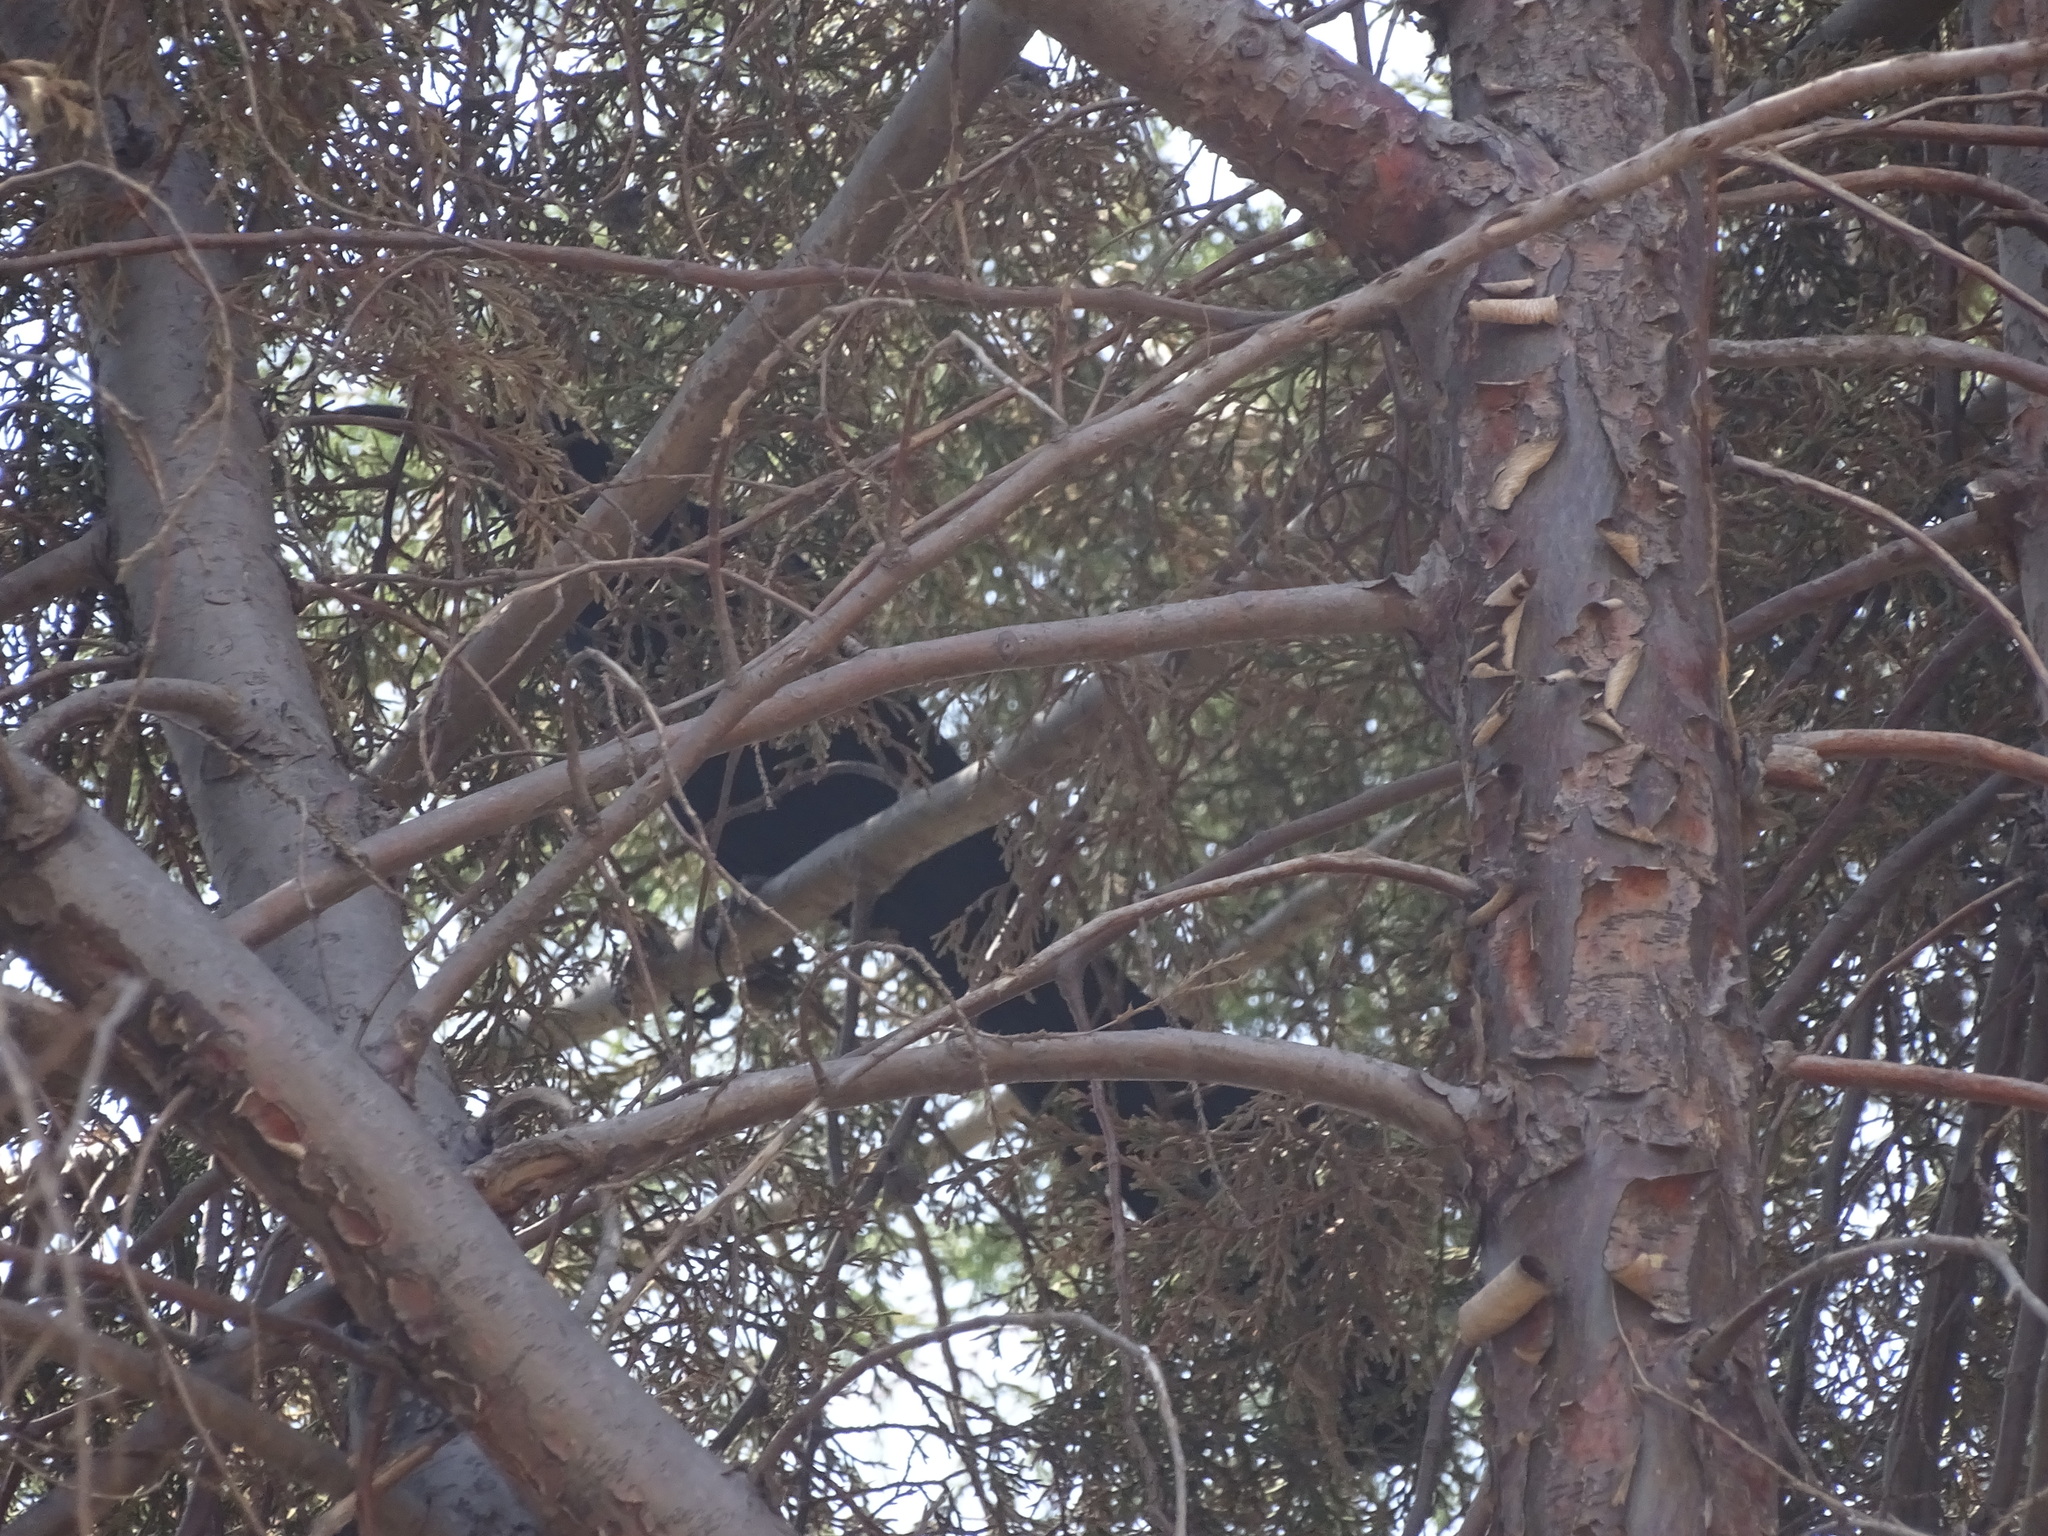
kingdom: Animalia
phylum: Chordata
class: Aves
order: Passeriformes
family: Icteridae
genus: Quiscalus
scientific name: Quiscalus mexicanus
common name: Great-tailed grackle
